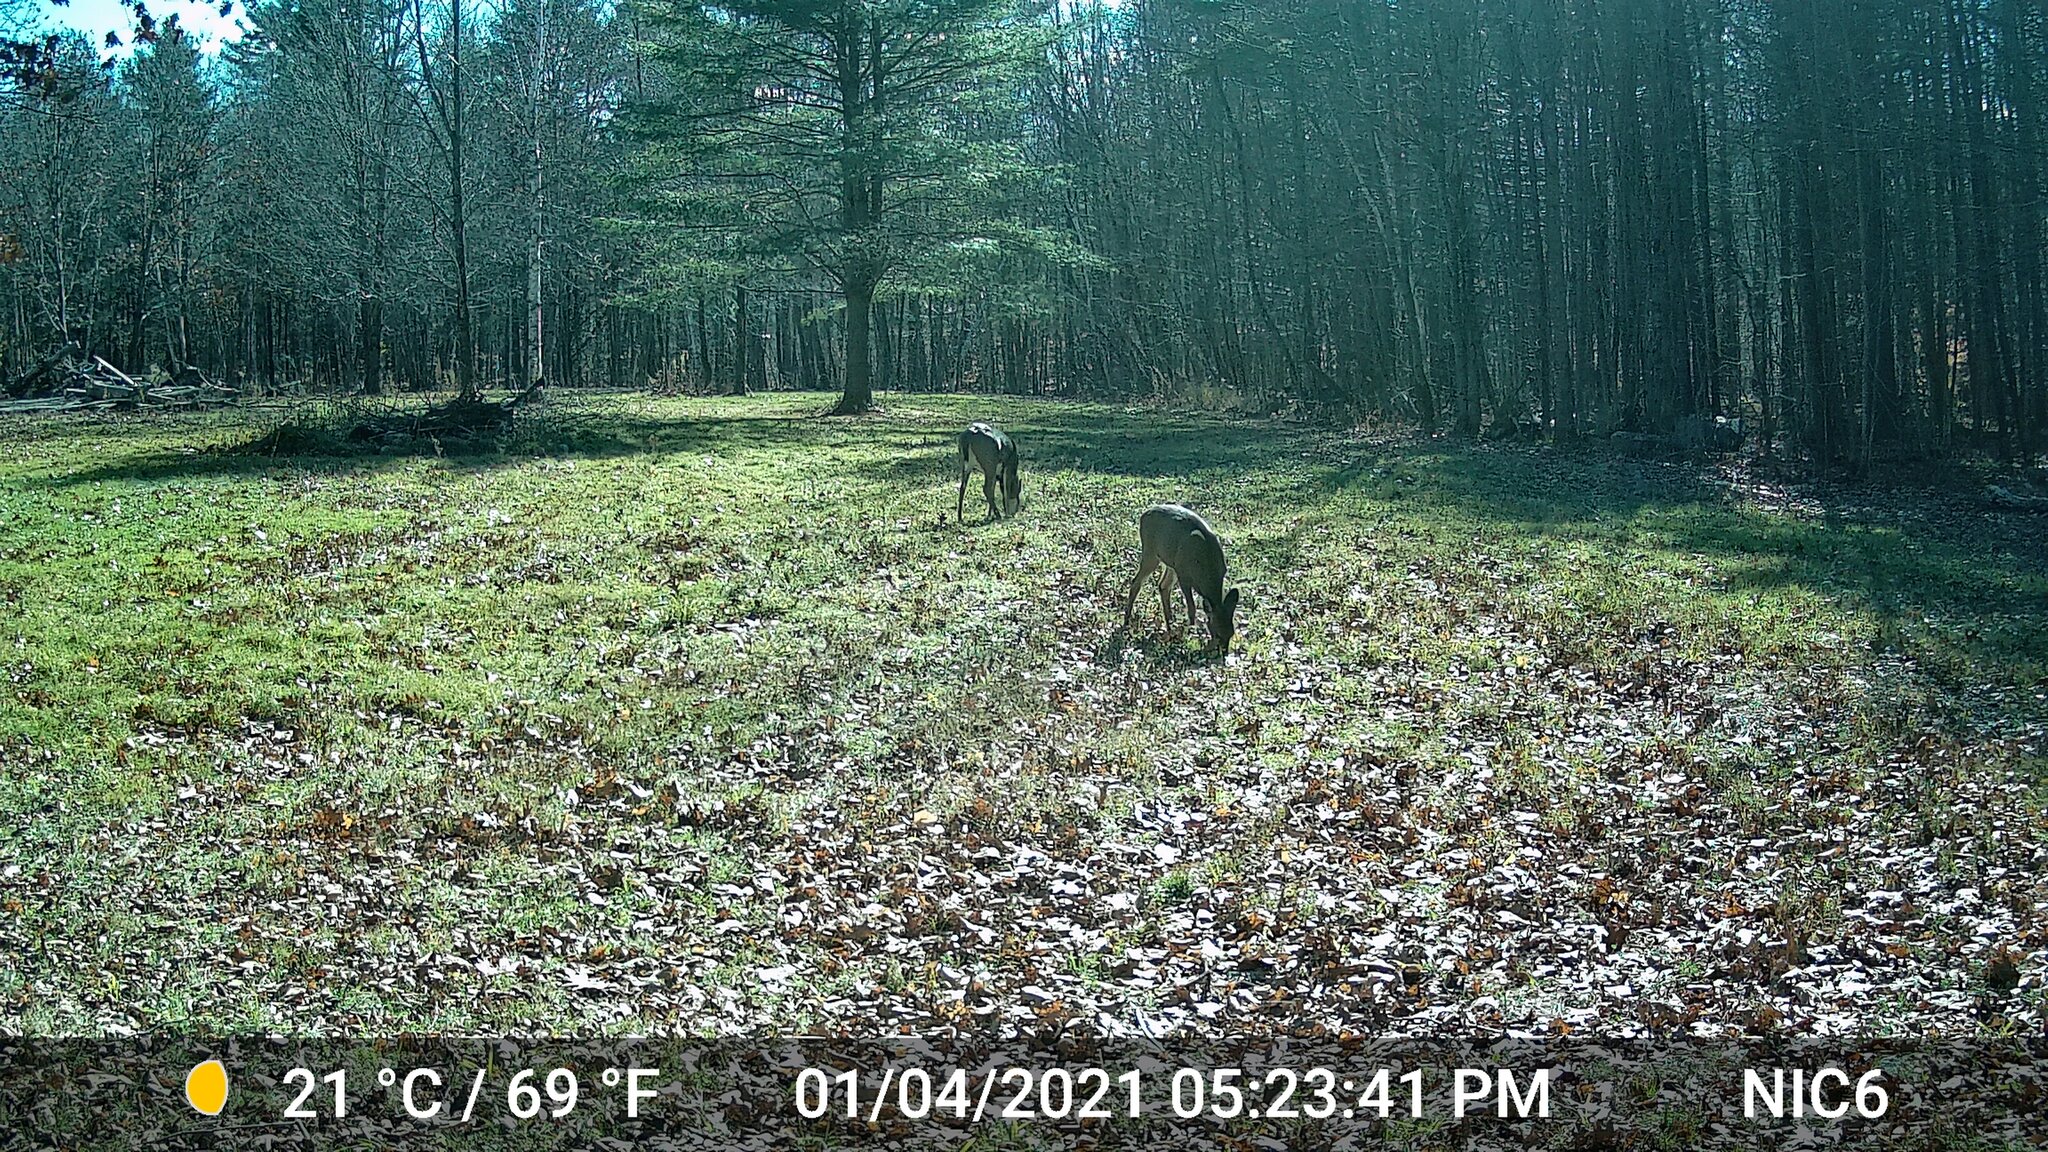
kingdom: Animalia
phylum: Chordata
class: Mammalia
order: Artiodactyla
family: Cervidae
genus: Odocoileus
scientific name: Odocoileus virginianus
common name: White-tailed deer
